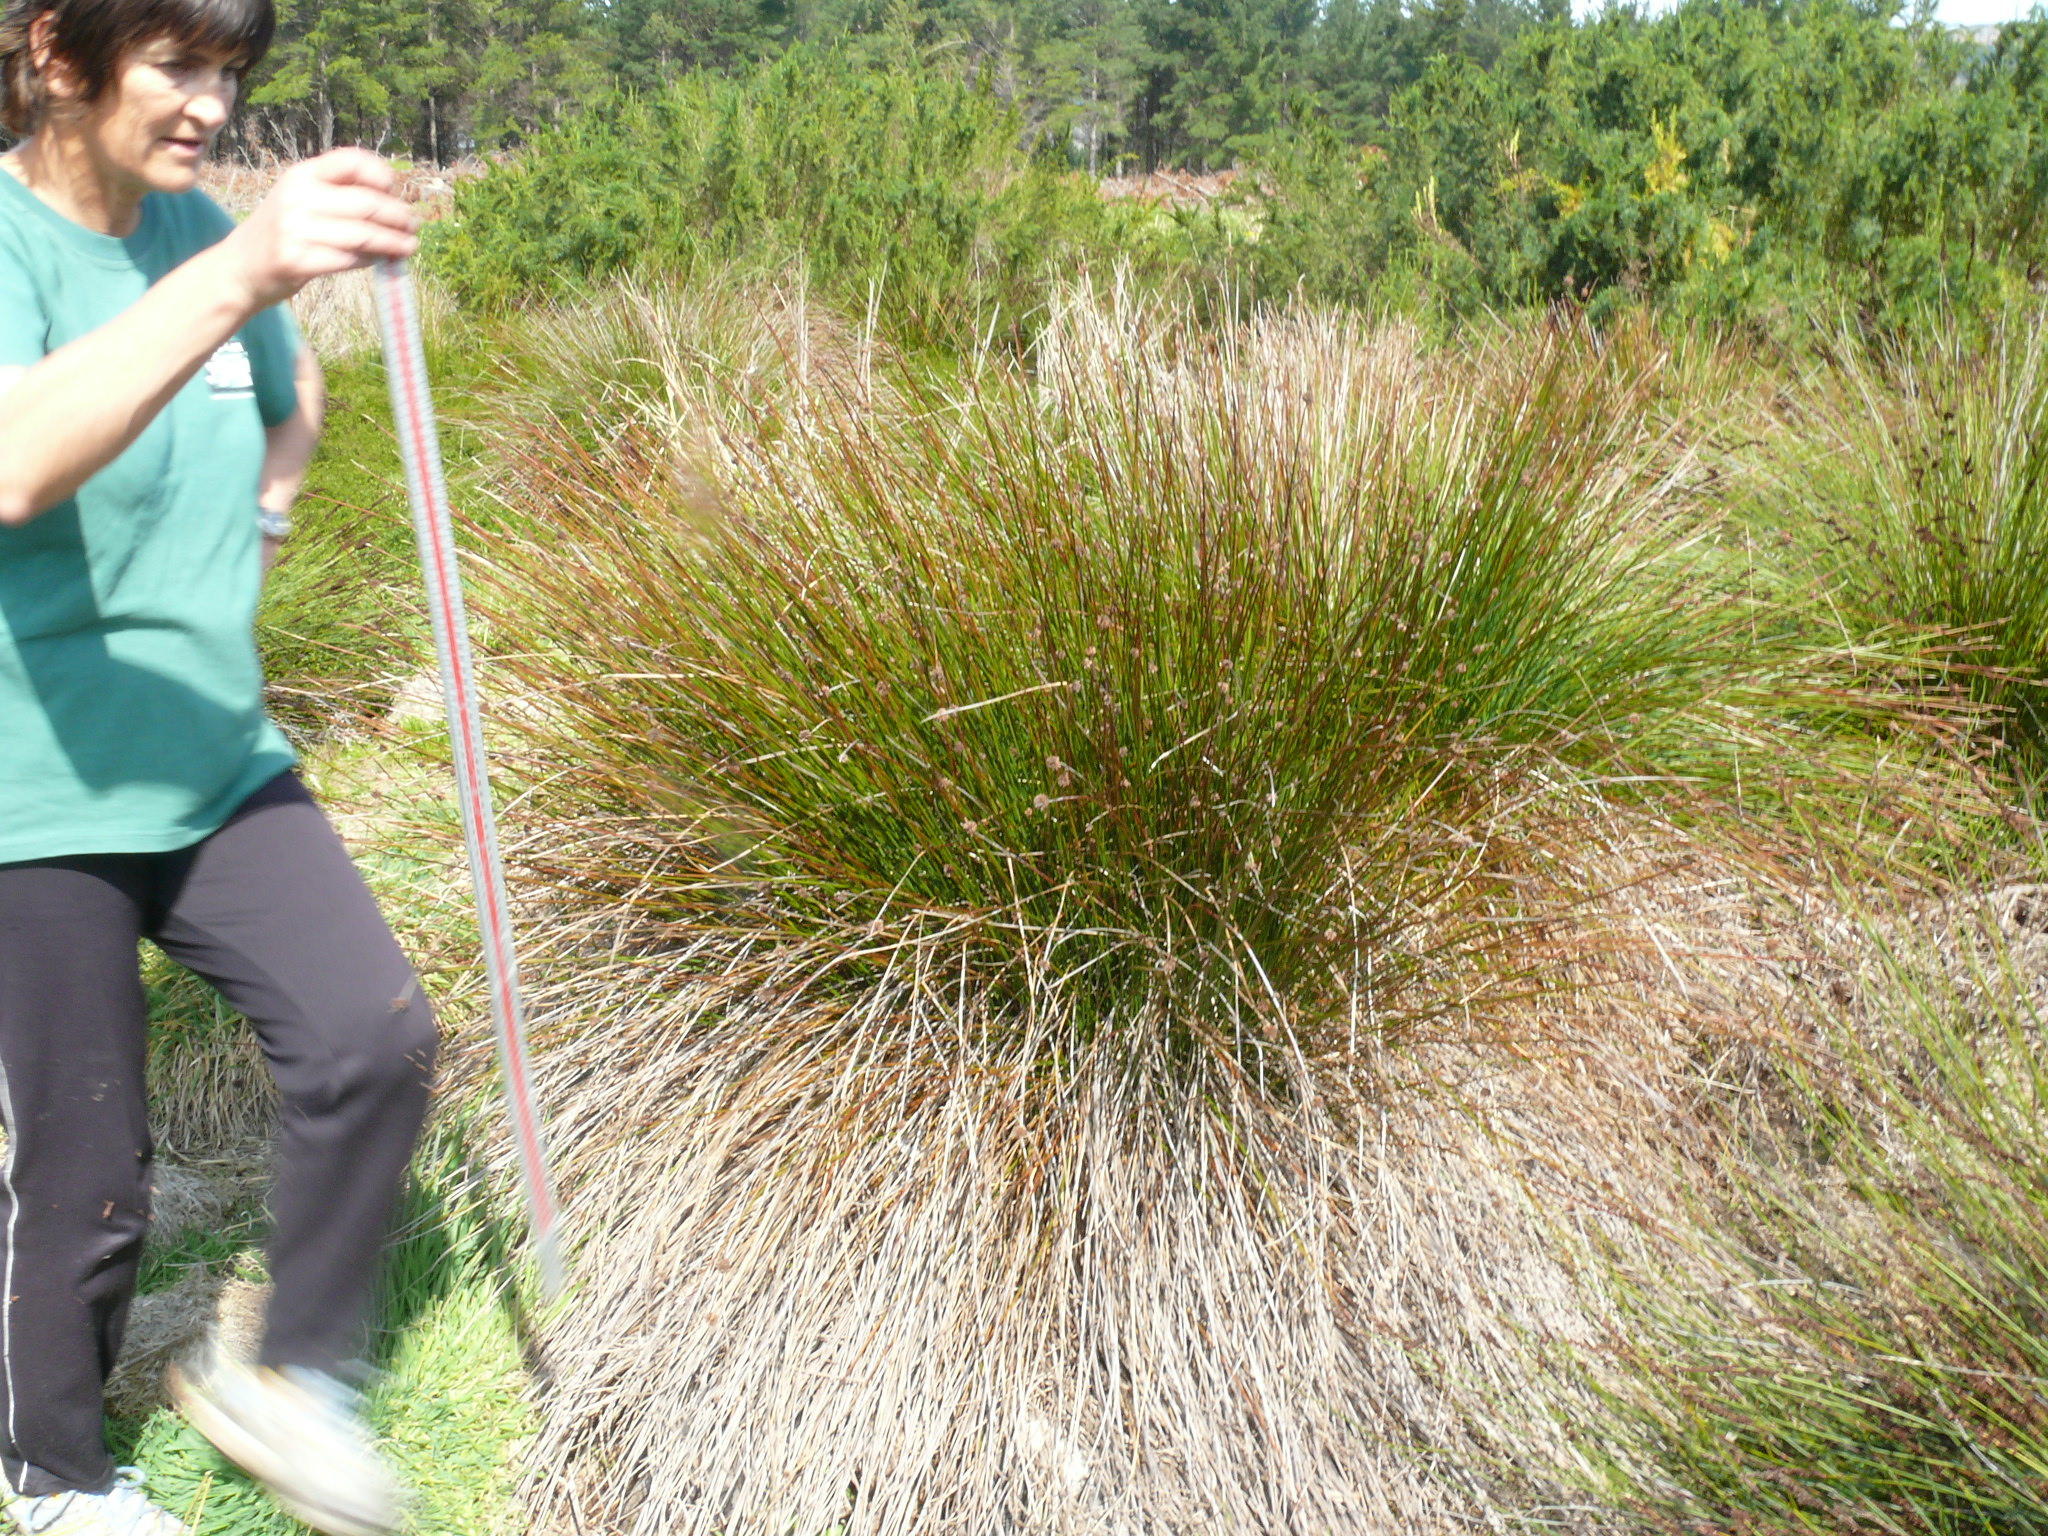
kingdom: Plantae
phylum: Tracheophyta
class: Liliopsida
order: Poales
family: Restionaceae
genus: Elegia
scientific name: Elegia tectorum
